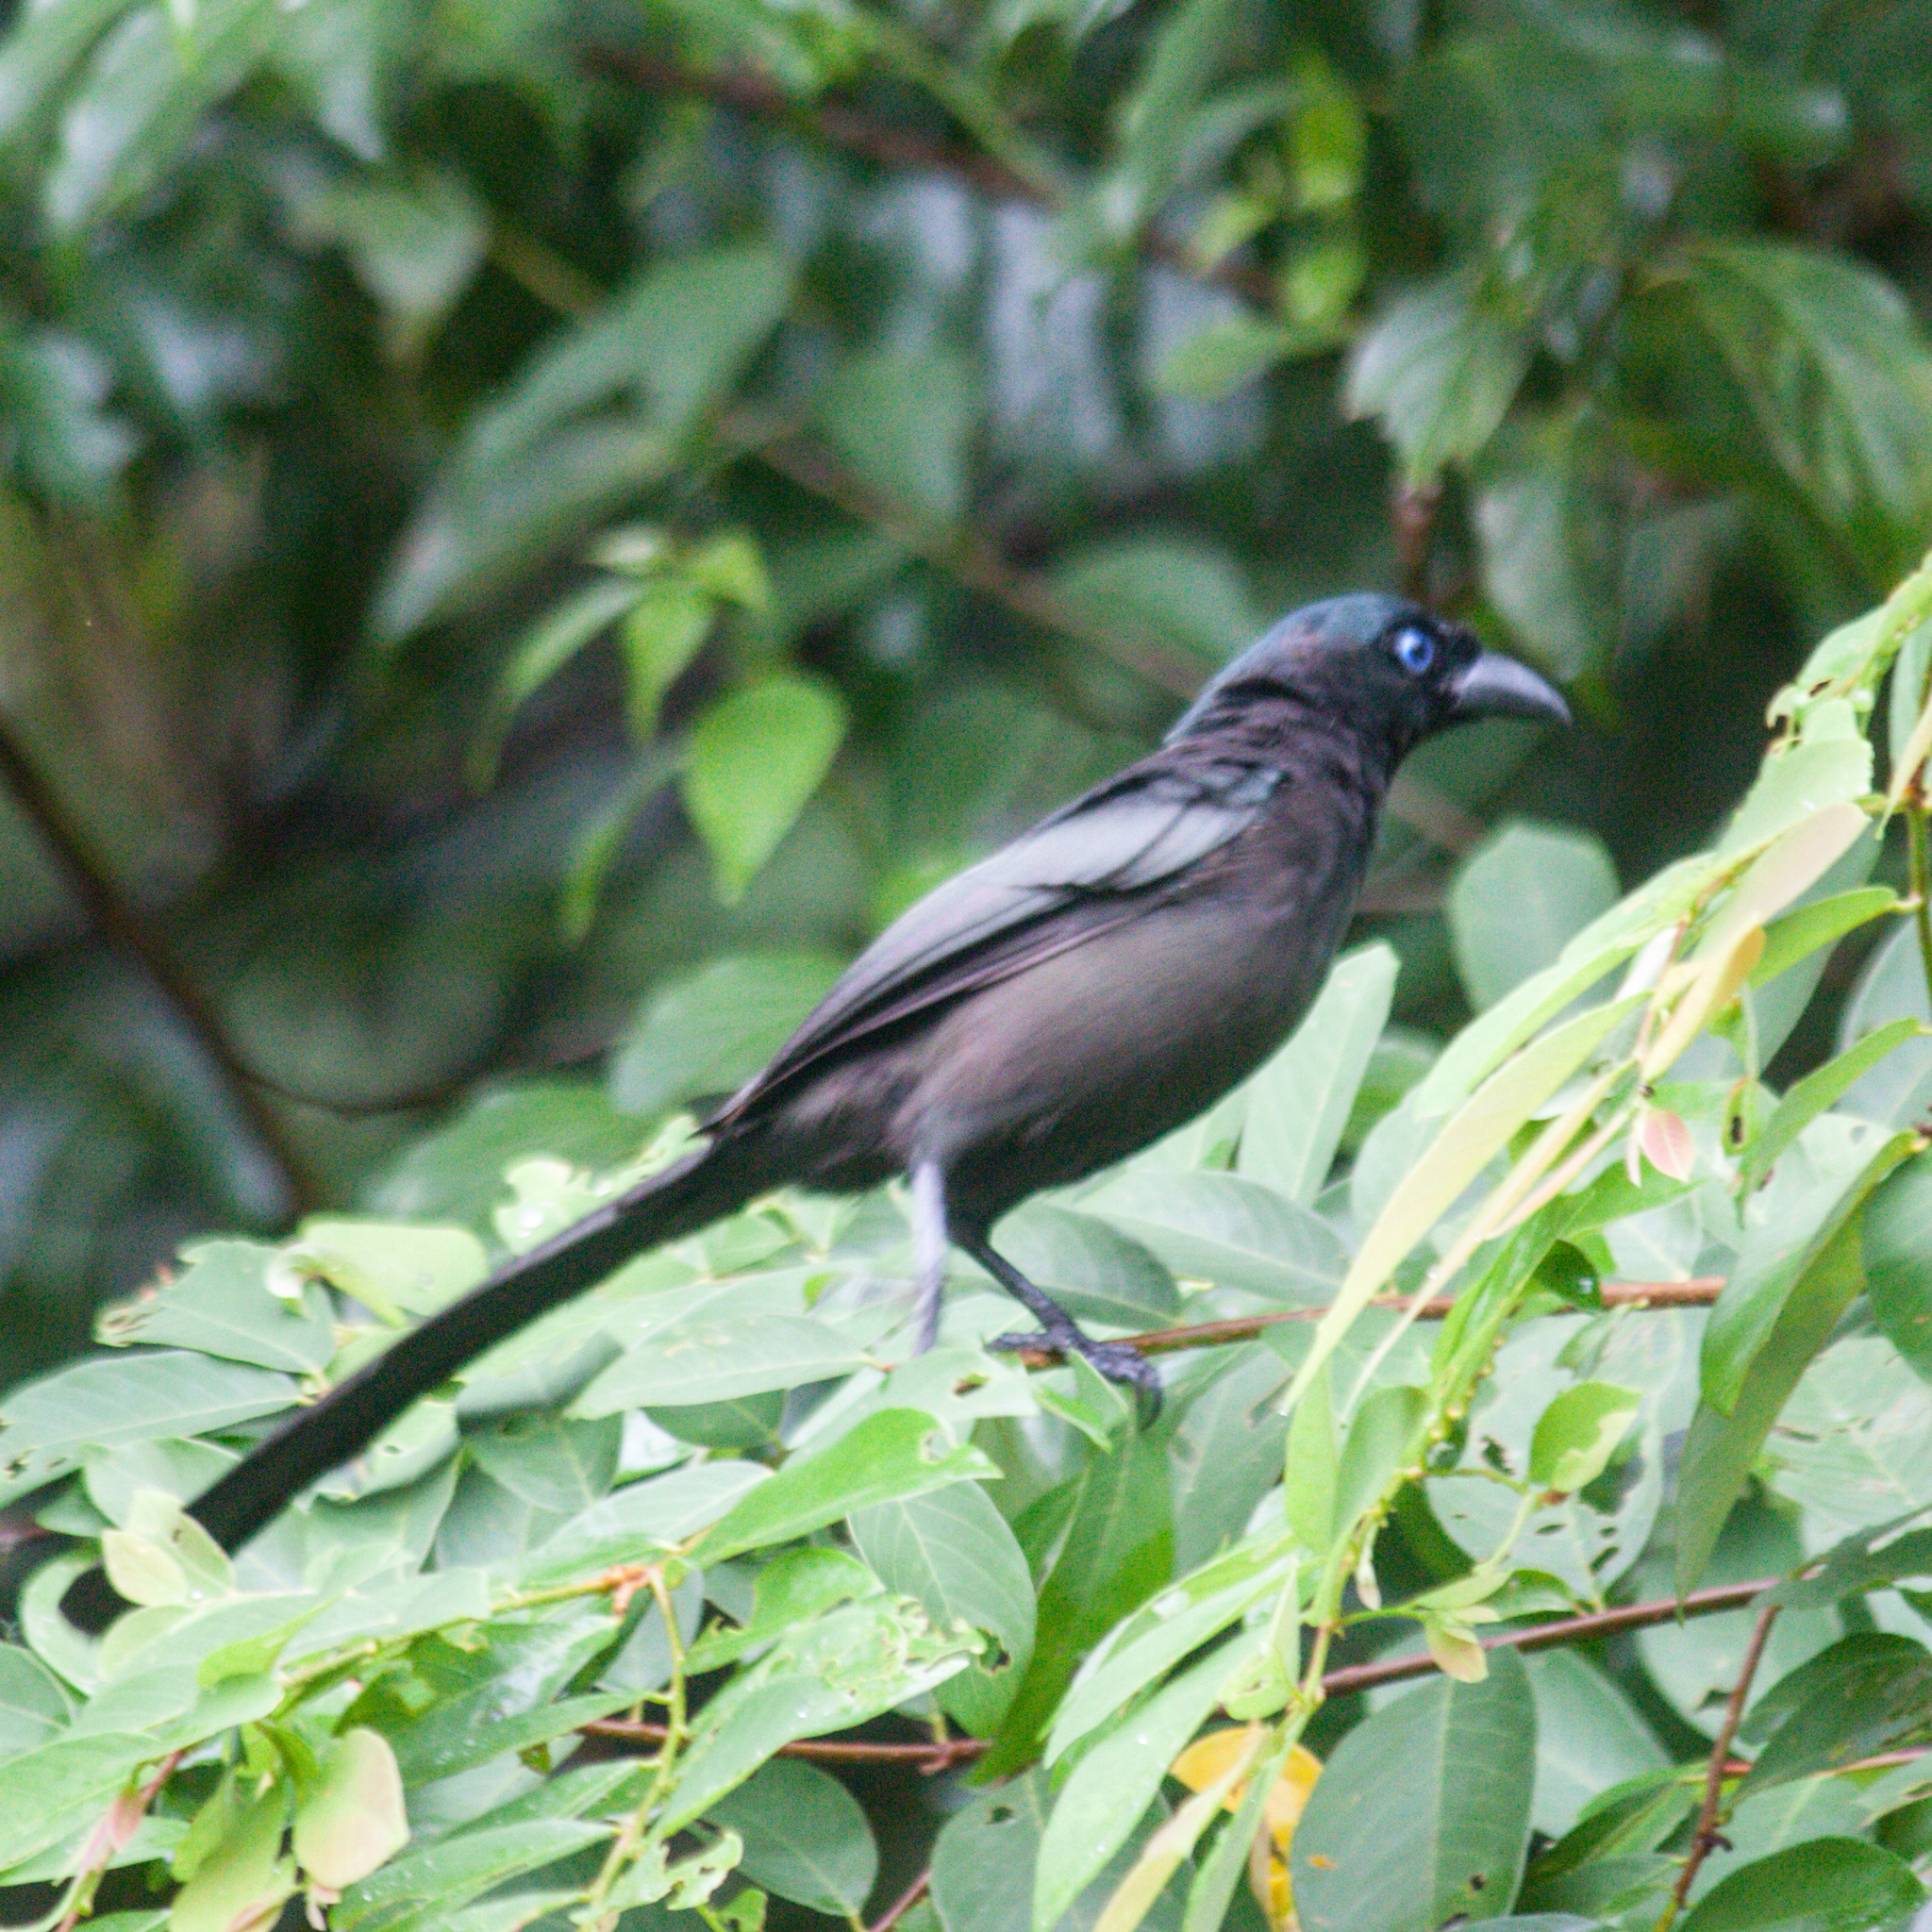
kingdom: Animalia
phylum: Chordata
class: Aves
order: Passeriformes
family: Corvidae
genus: Crypsirina
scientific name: Crypsirina temia
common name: Racket-tailed treepie
